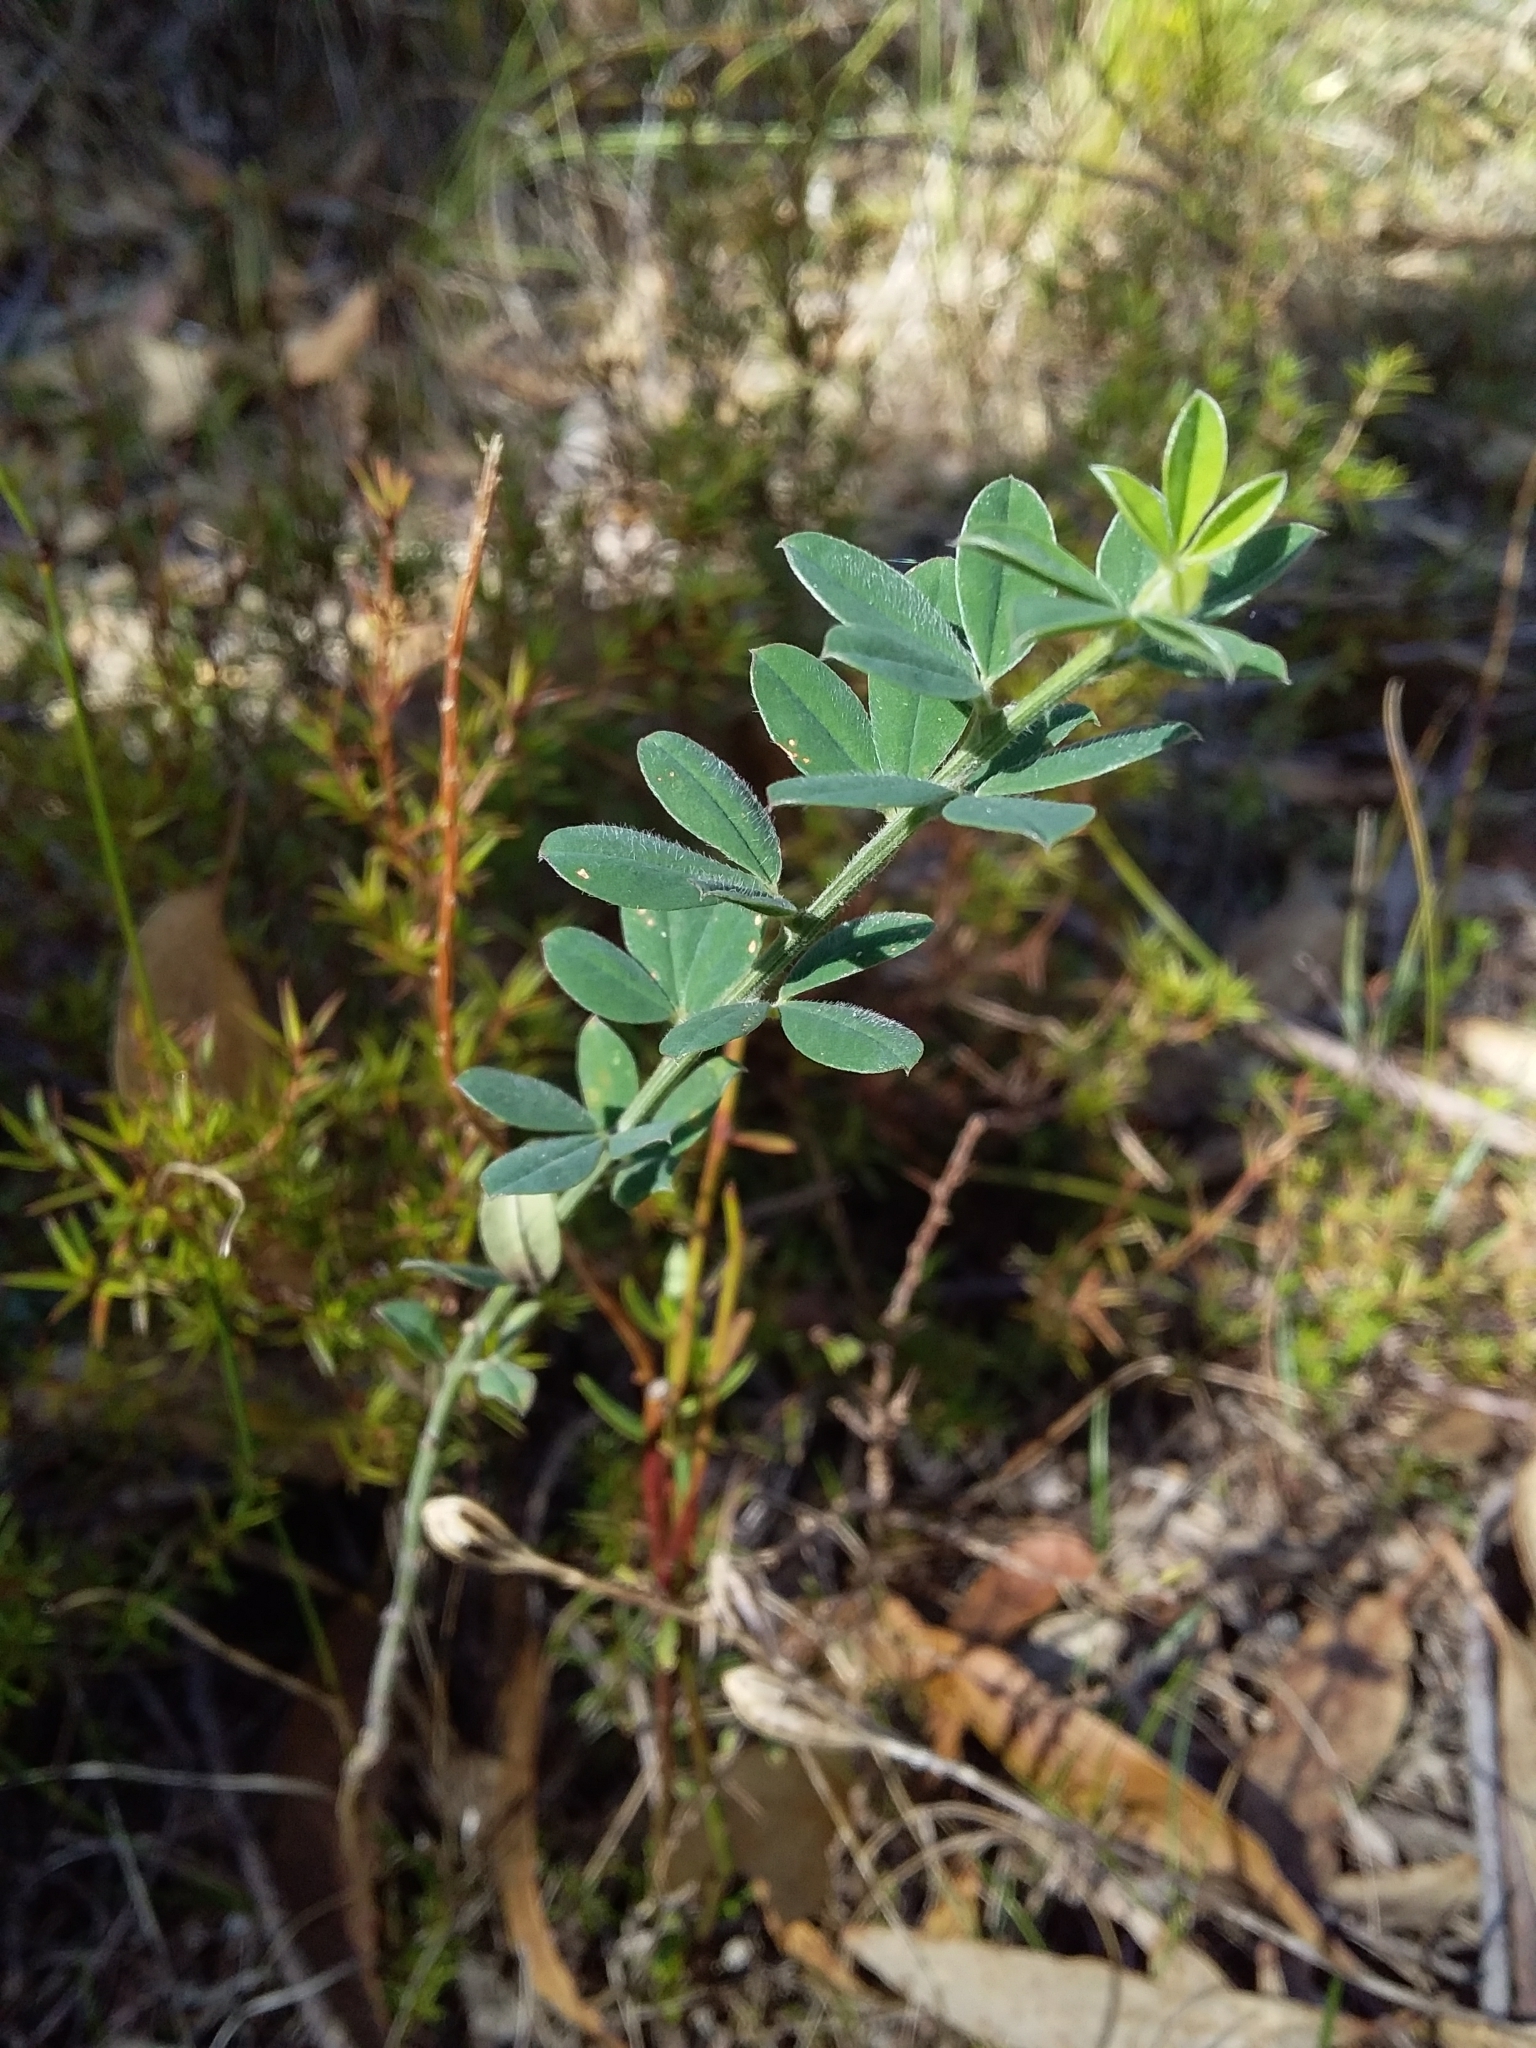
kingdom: Plantae
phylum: Tracheophyta
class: Magnoliopsida
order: Fabales
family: Fabaceae
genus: Genista
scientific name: Genista monspessulana
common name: Montpellier broom
